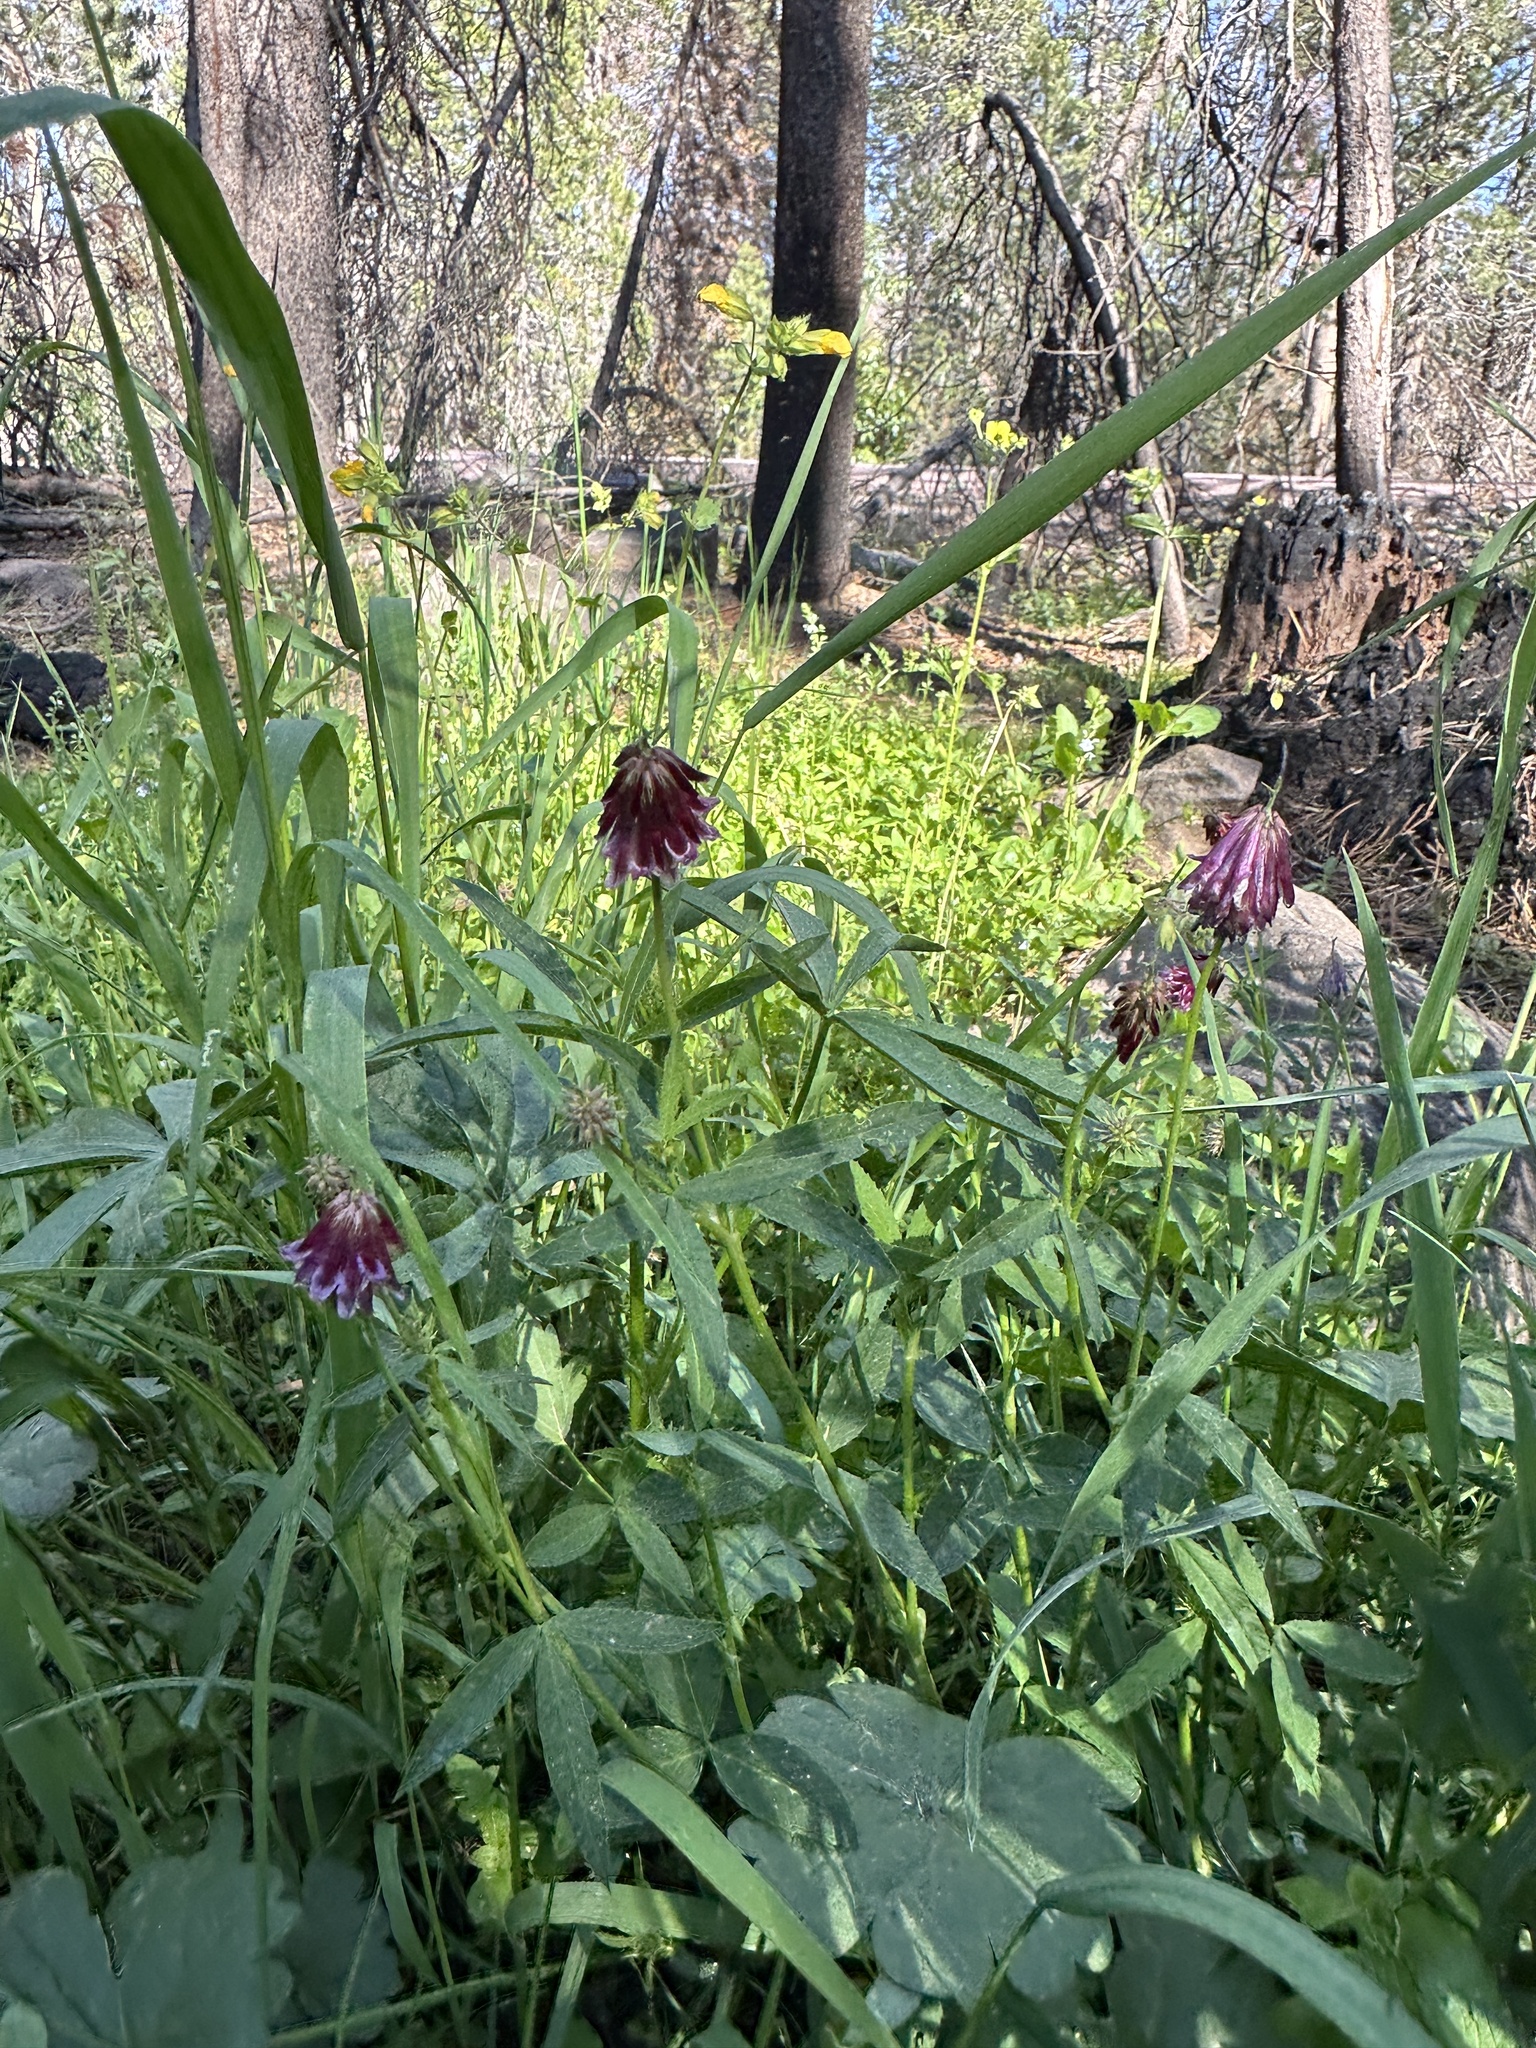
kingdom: Plantae
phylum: Tracheophyta
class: Magnoliopsida
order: Fabales
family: Fabaceae
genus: Trifolium
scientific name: Trifolium productum
